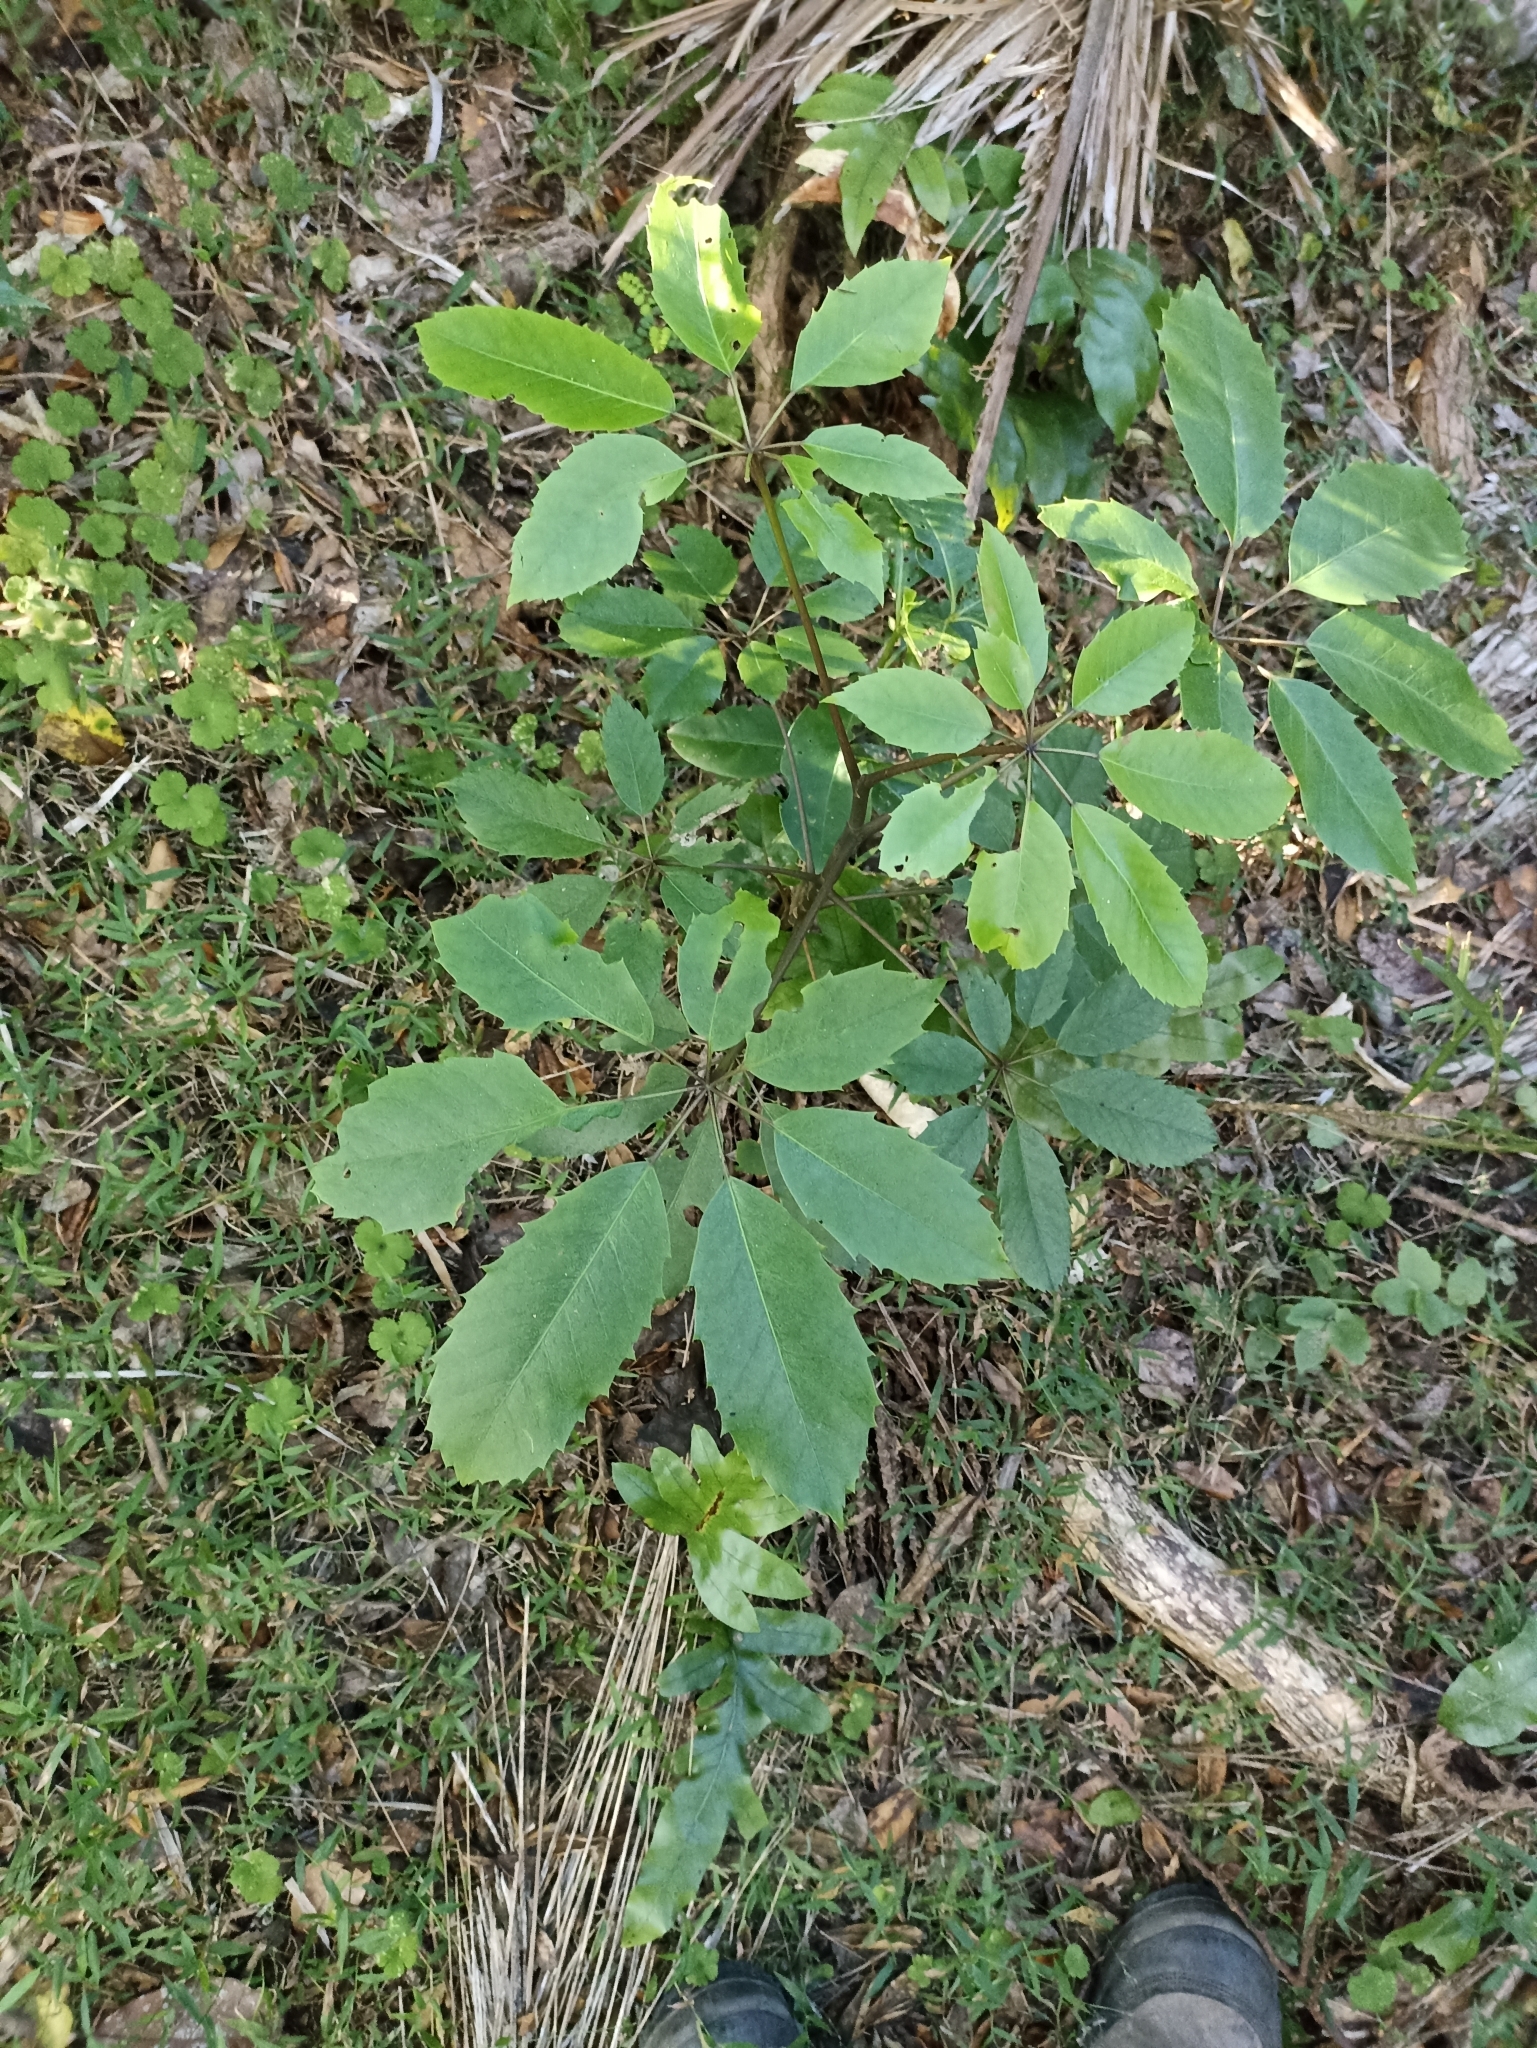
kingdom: Plantae
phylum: Tracheophyta
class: Magnoliopsida
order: Apiales
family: Araliaceae
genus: Neopanax
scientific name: Neopanax arboreus
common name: Five-fingers
